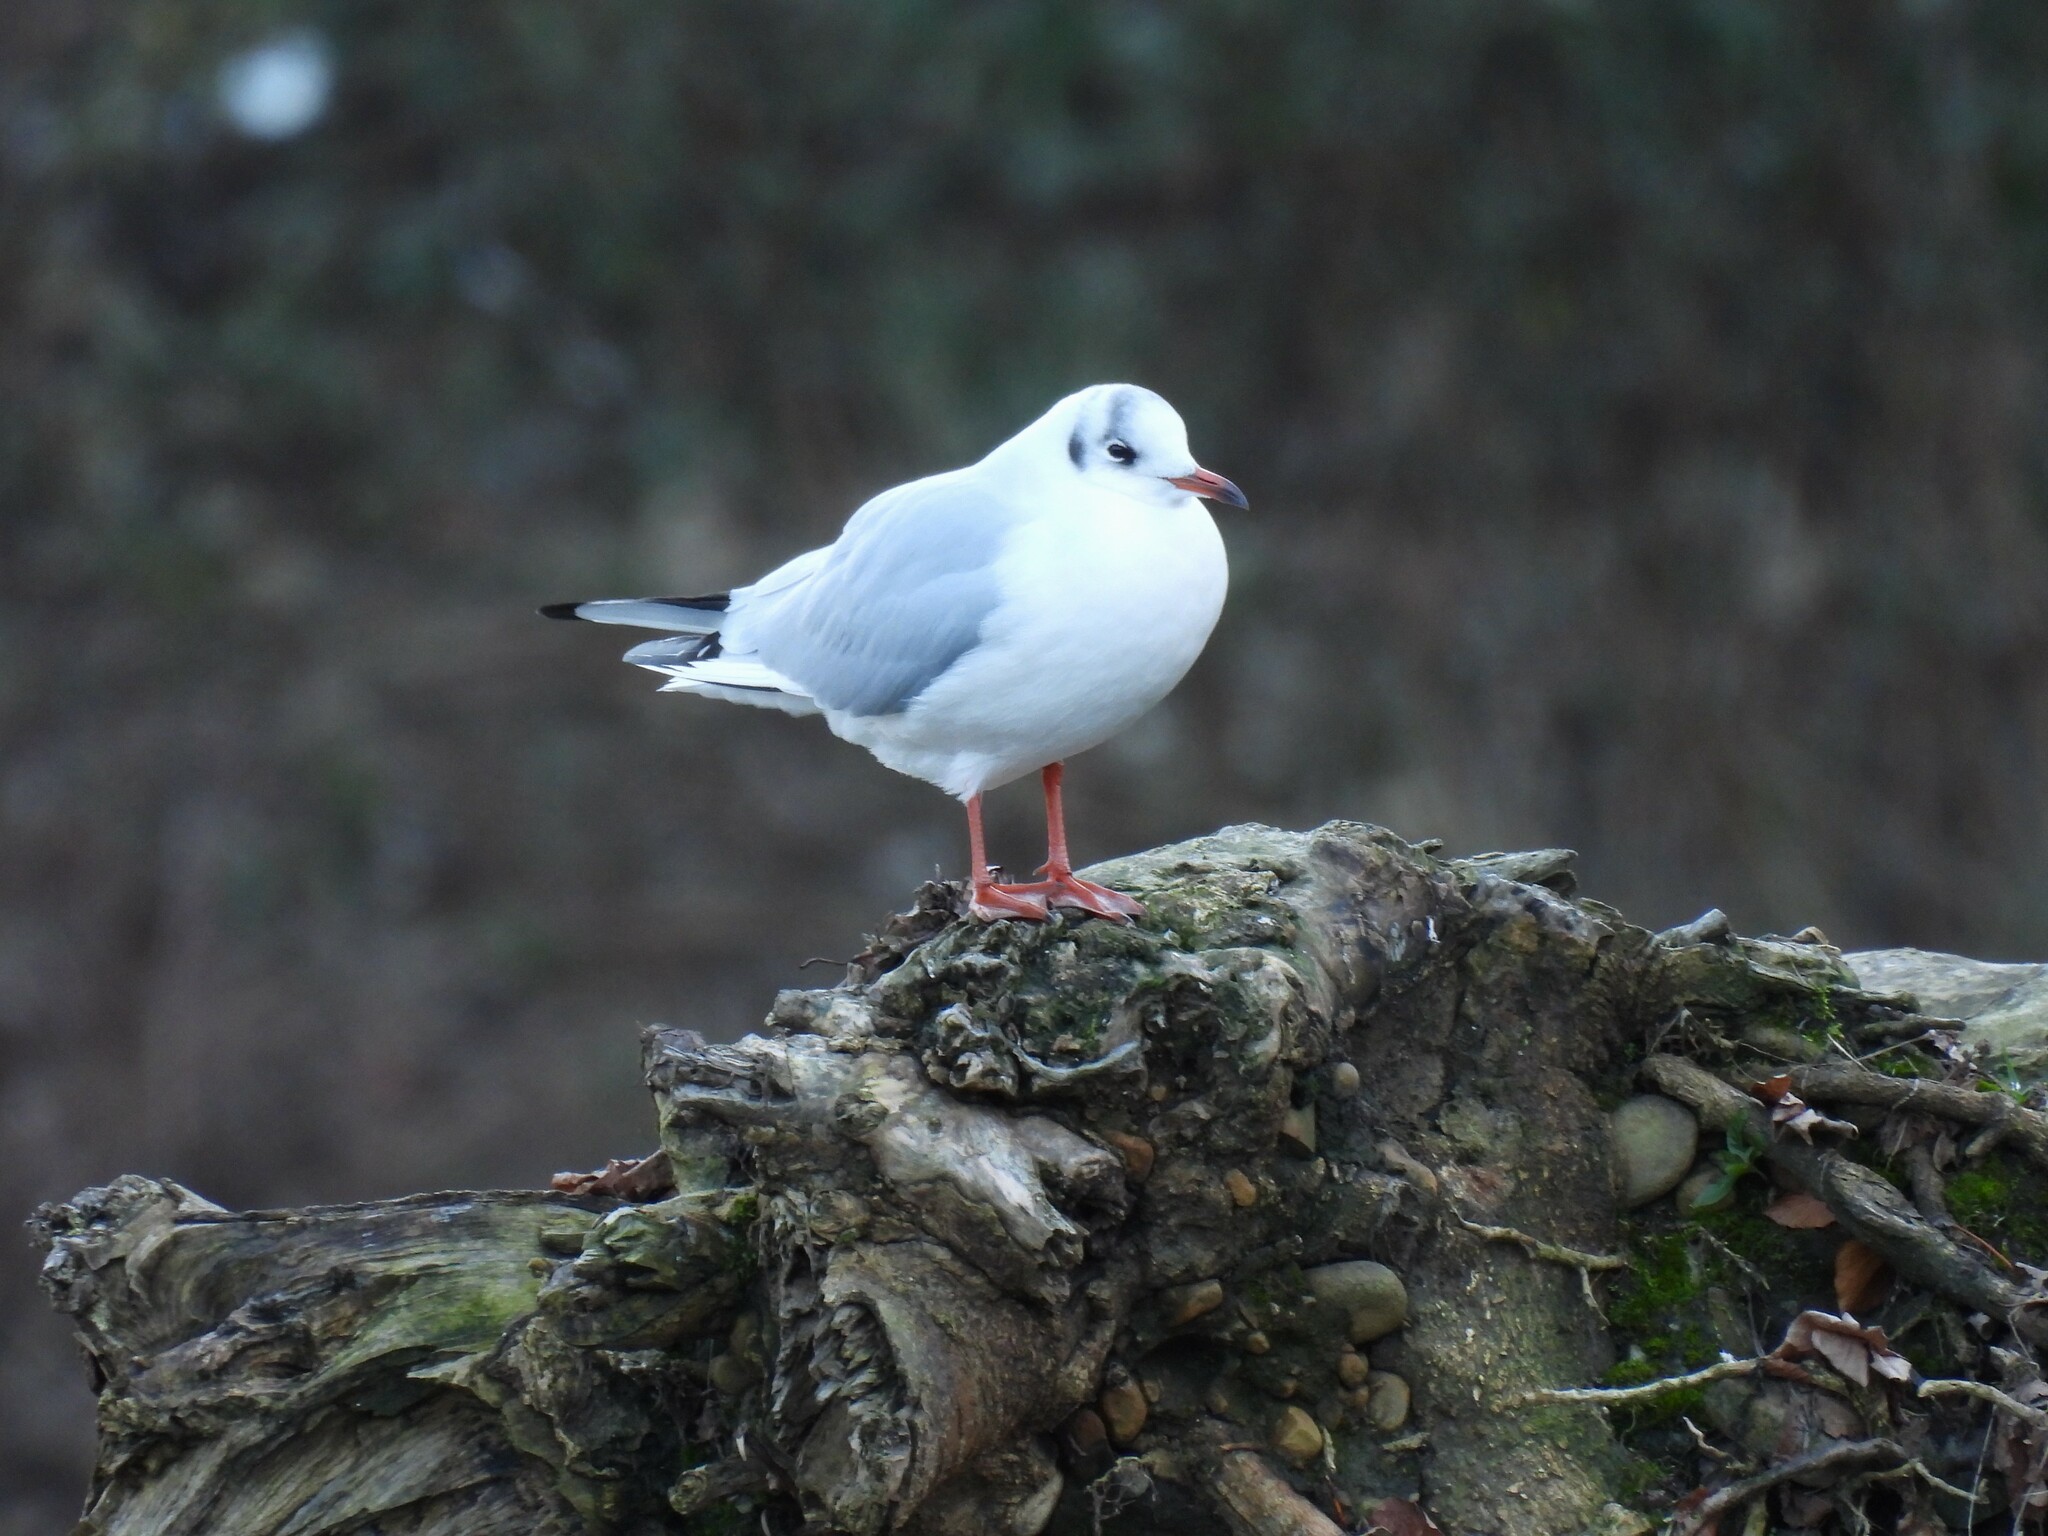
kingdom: Animalia
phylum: Chordata
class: Aves
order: Charadriiformes
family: Laridae
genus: Chroicocephalus
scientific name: Chroicocephalus ridibundus
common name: Black-headed gull
